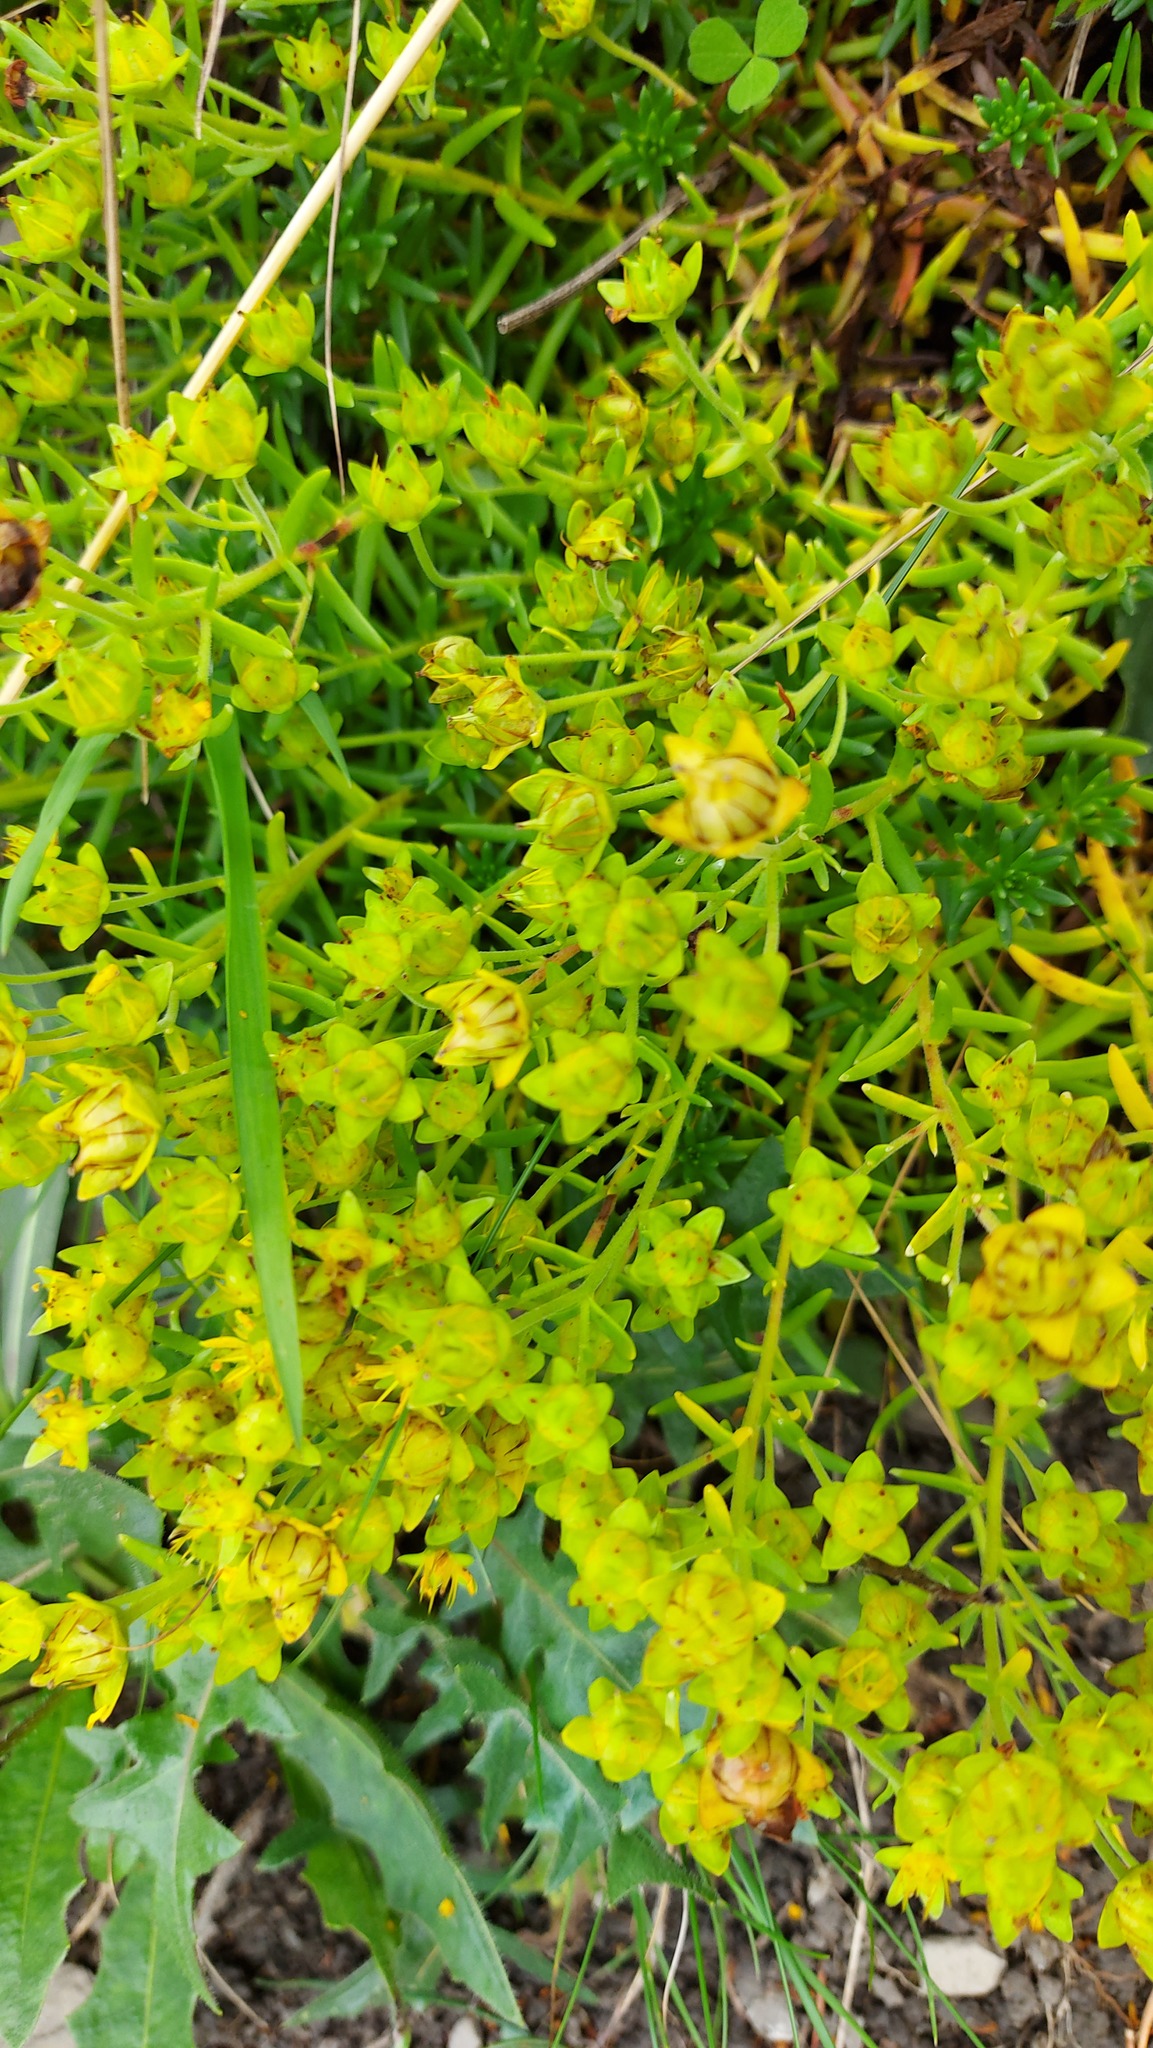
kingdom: Plantae
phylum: Tracheophyta
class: Magnoliopsida
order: Saxifragales
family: Saxifragaceae
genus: Saxifraga
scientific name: Saxifraga aizoides
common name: Yellow mountain saxifrage
